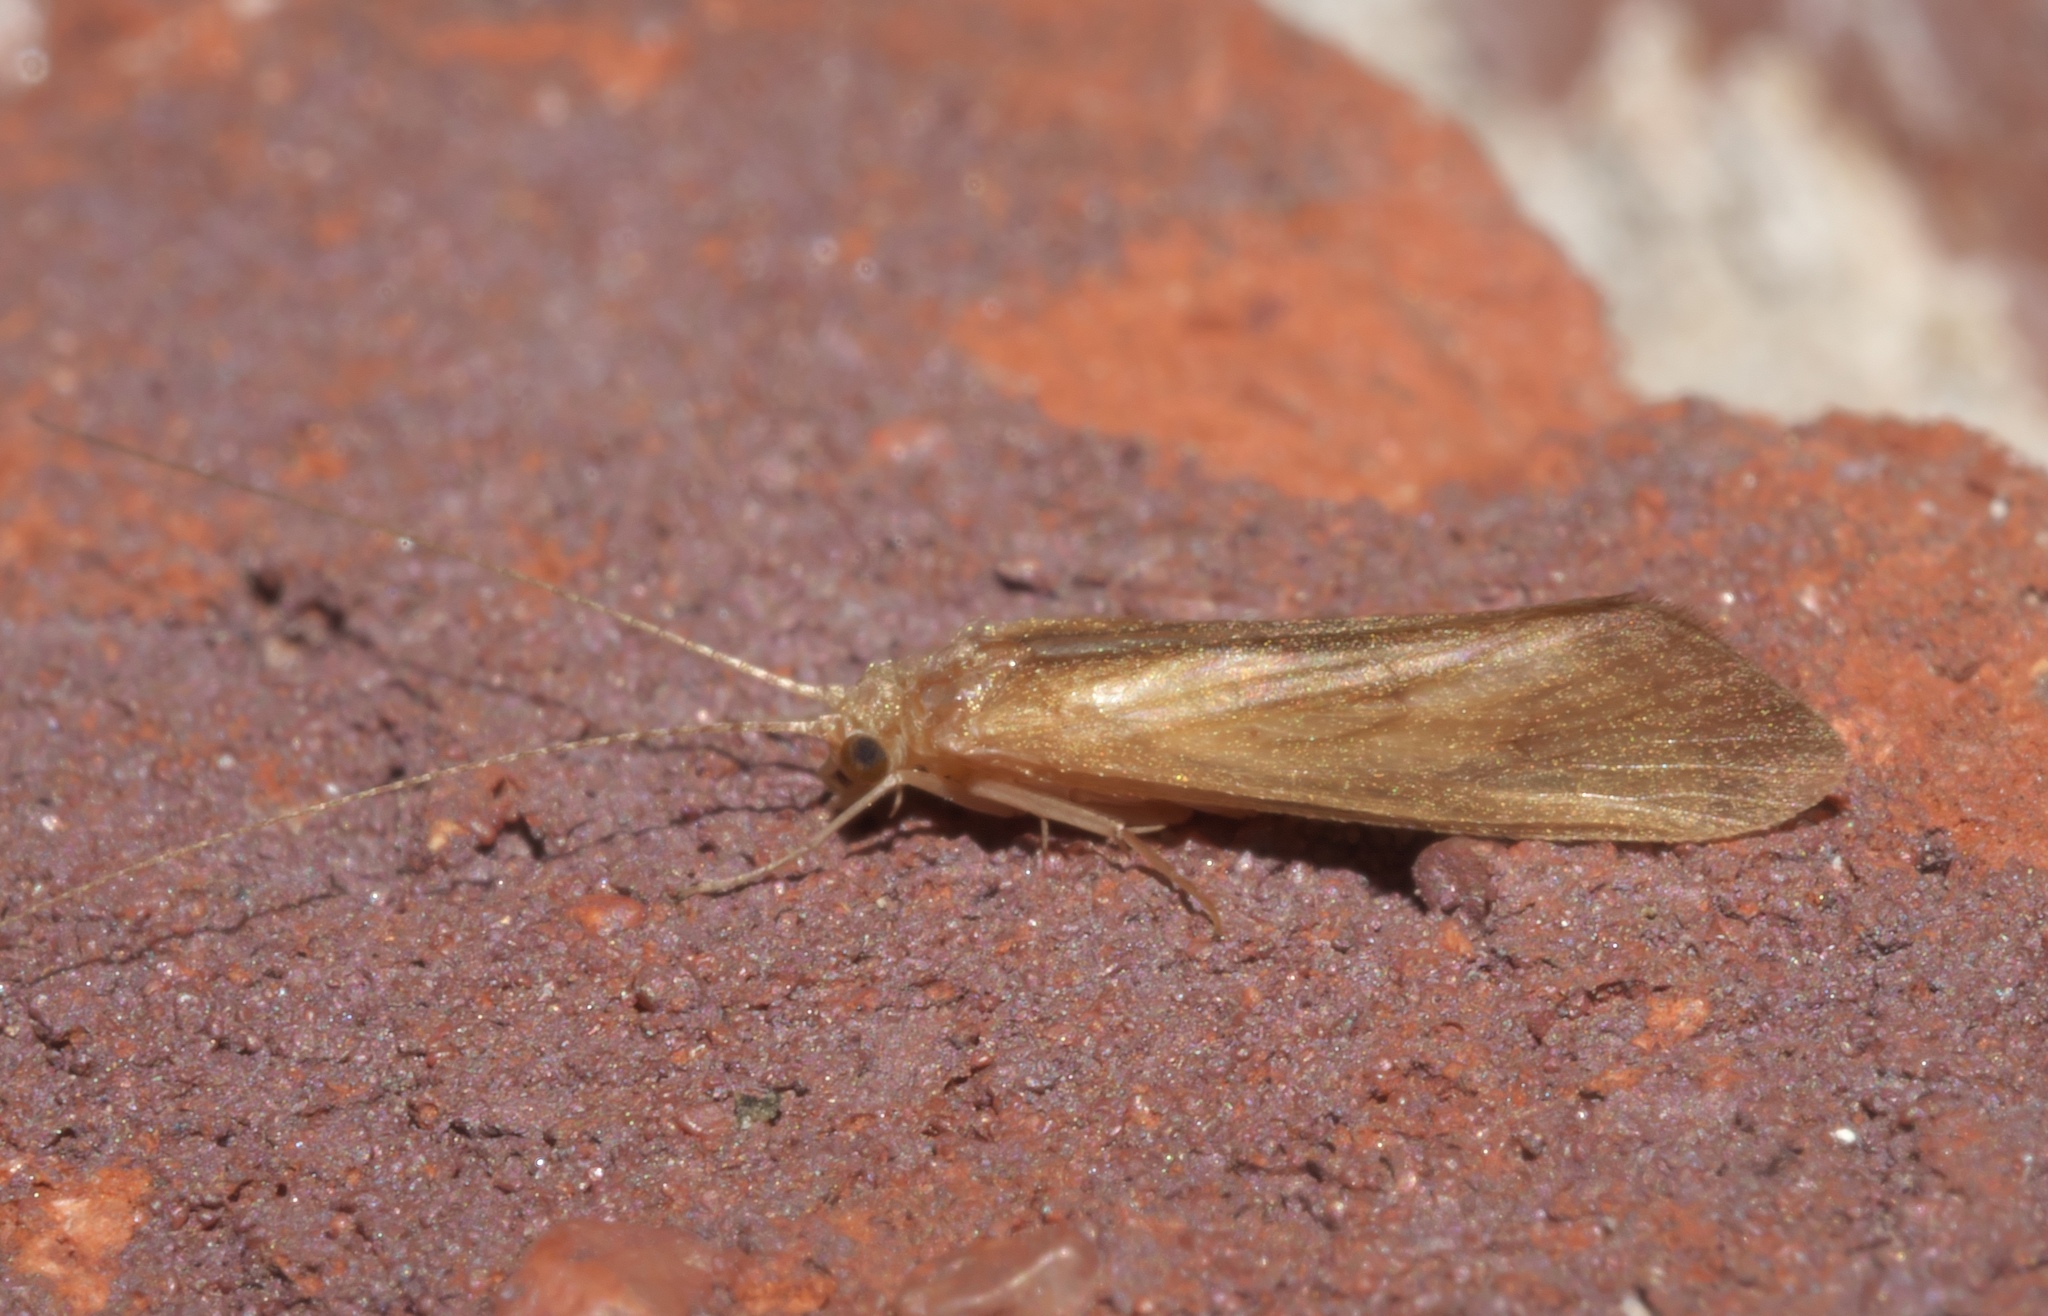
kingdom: Animalia
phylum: Arthropoda
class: Insecta
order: Trichoptera
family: Hydropsychidae
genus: Potamyia
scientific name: Potamyia flava
